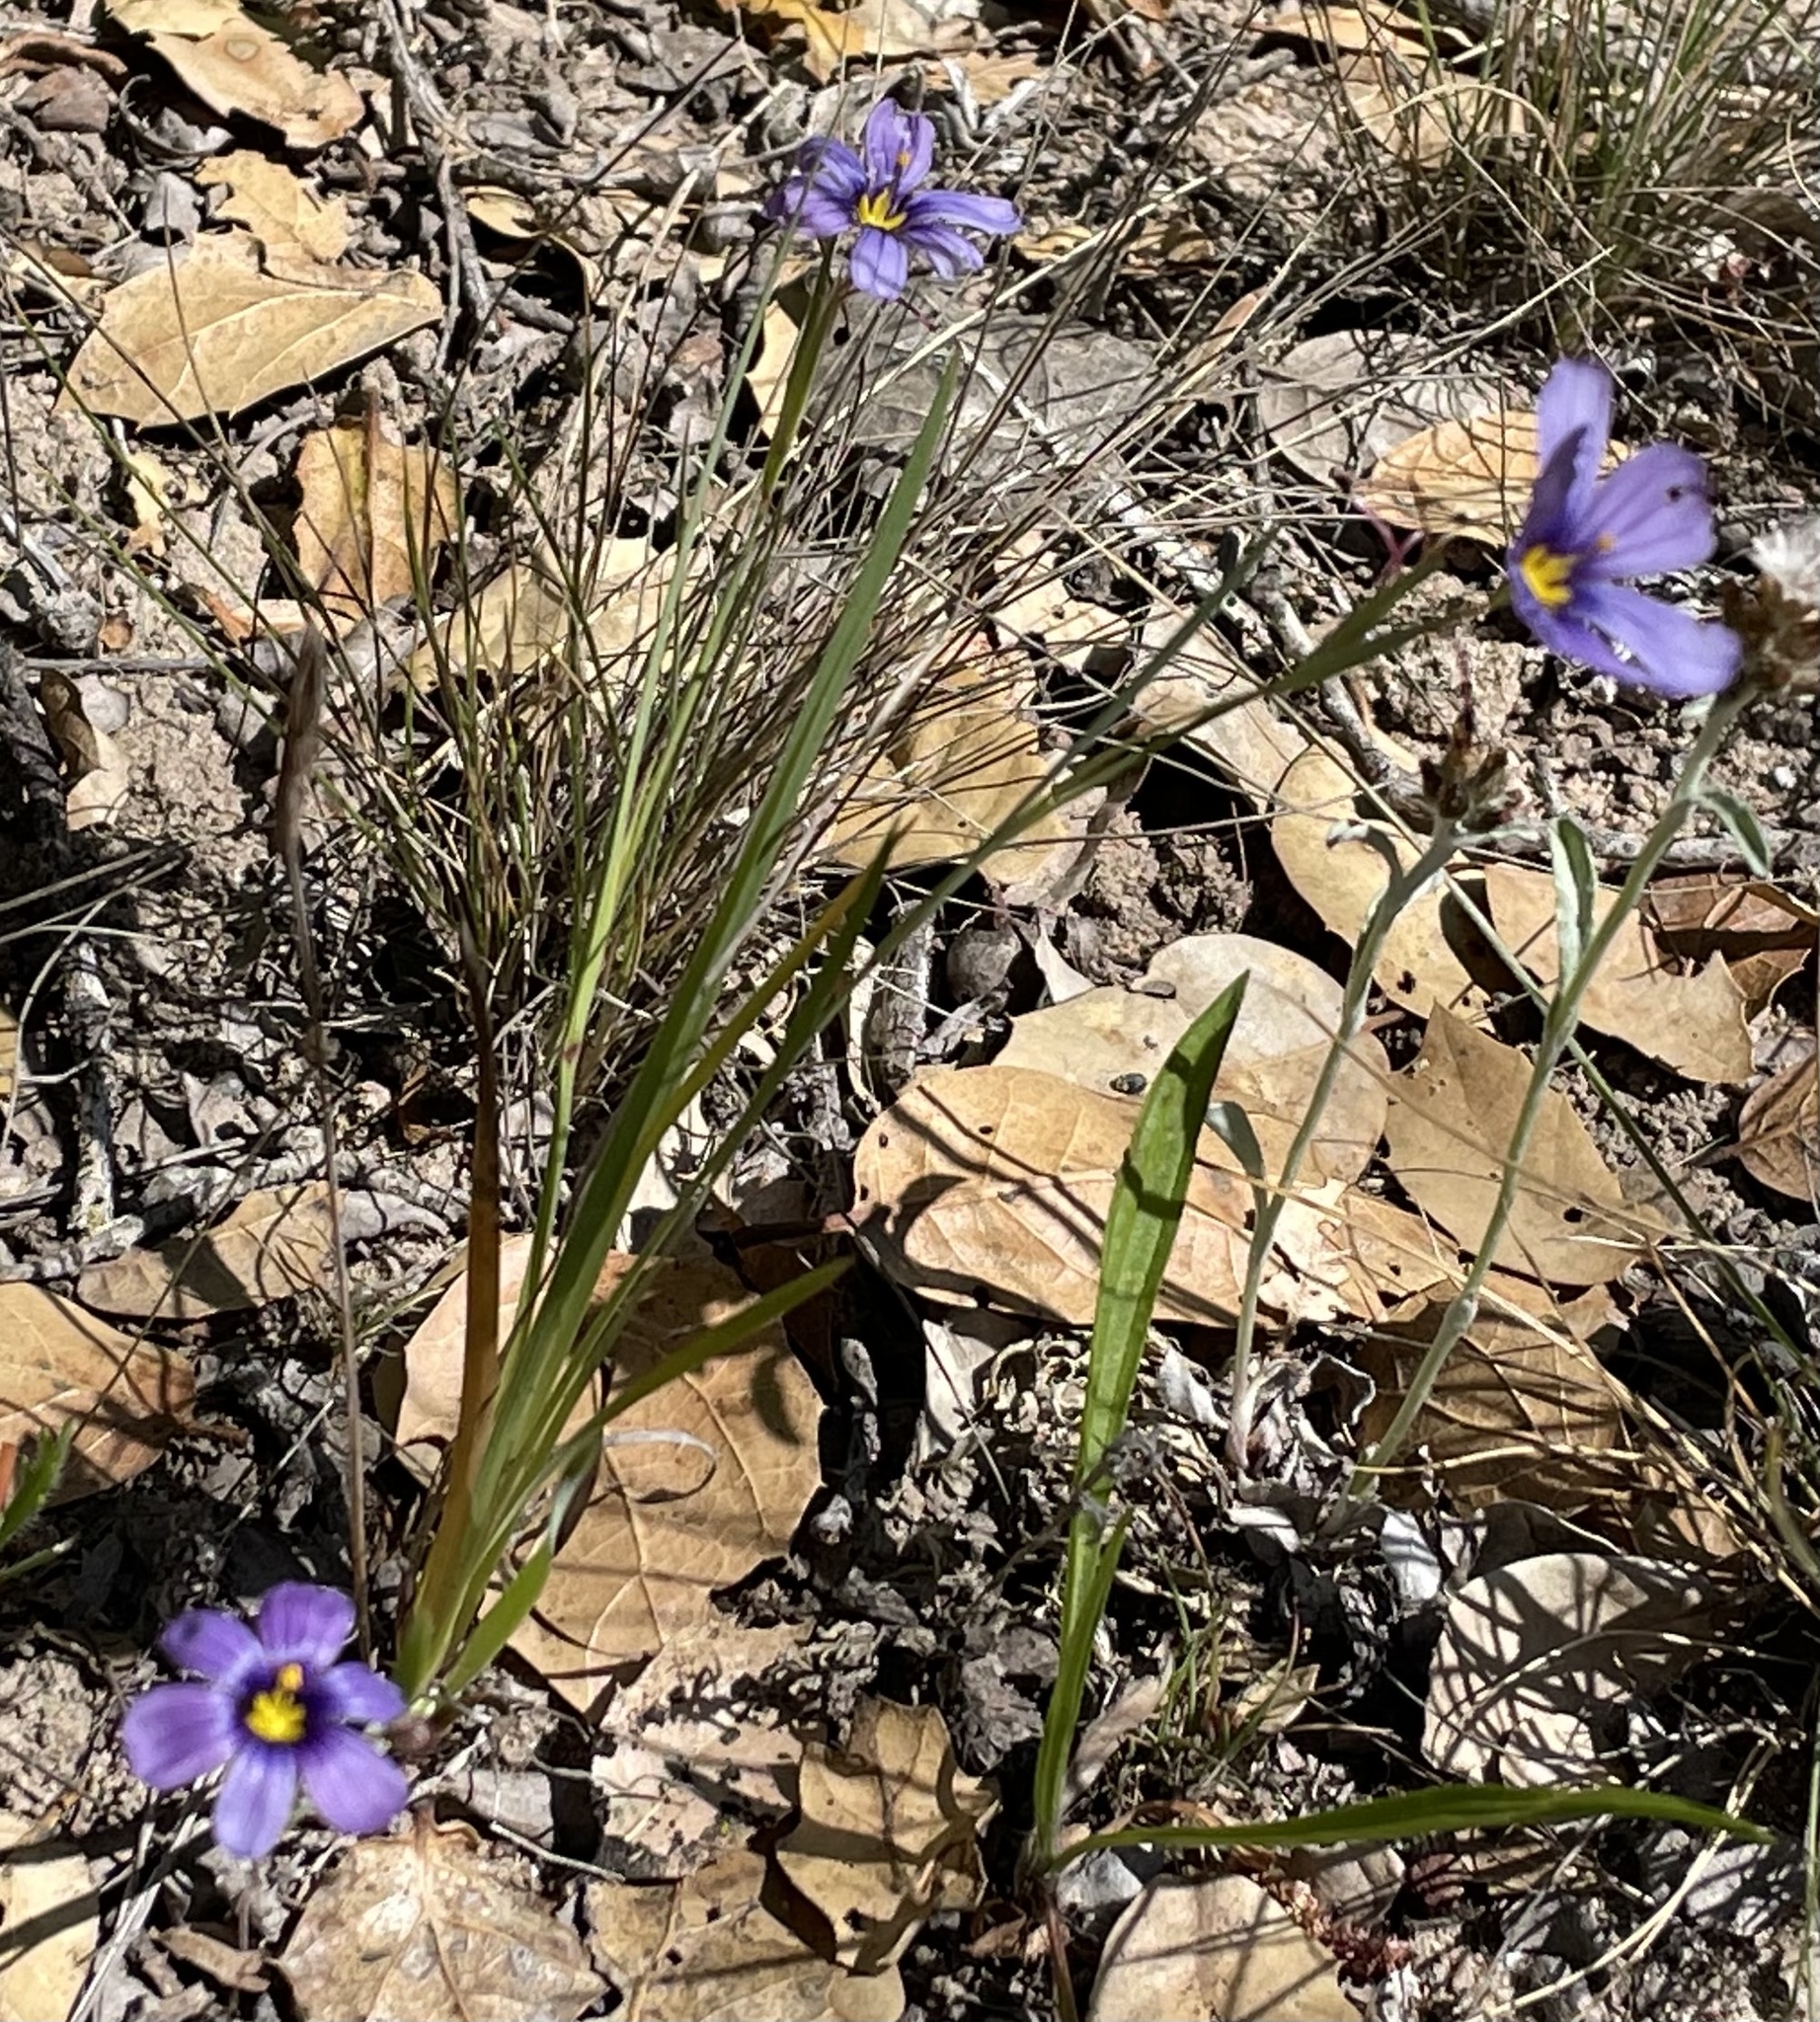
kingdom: Plantae
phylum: Tracheophyta
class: Liliopsida
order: Asparagales
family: Iridaceae
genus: Sisyrinchium
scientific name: Sisyrinchium bellum
